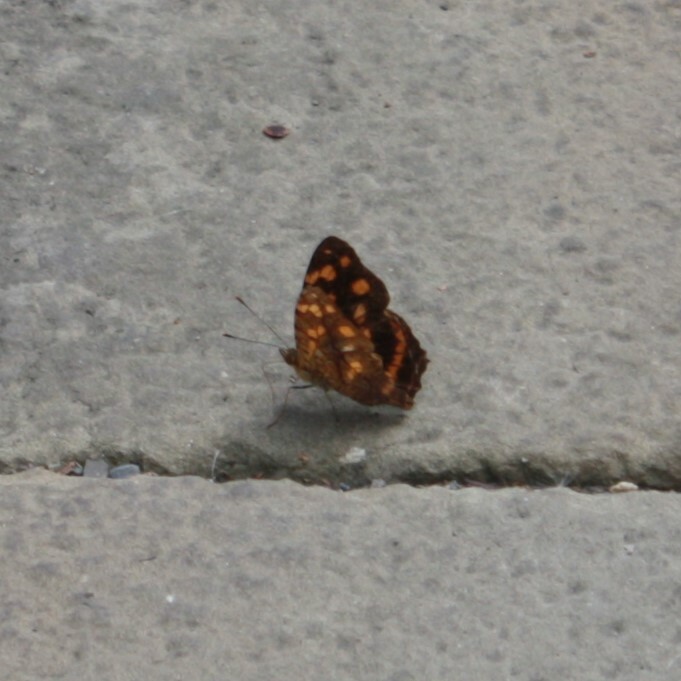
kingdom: Animalia
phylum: Arthropoda
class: Insecta
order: Lepidoptera
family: Nymphalidae
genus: Symbrenthia
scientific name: Symbrenthia hypselis
